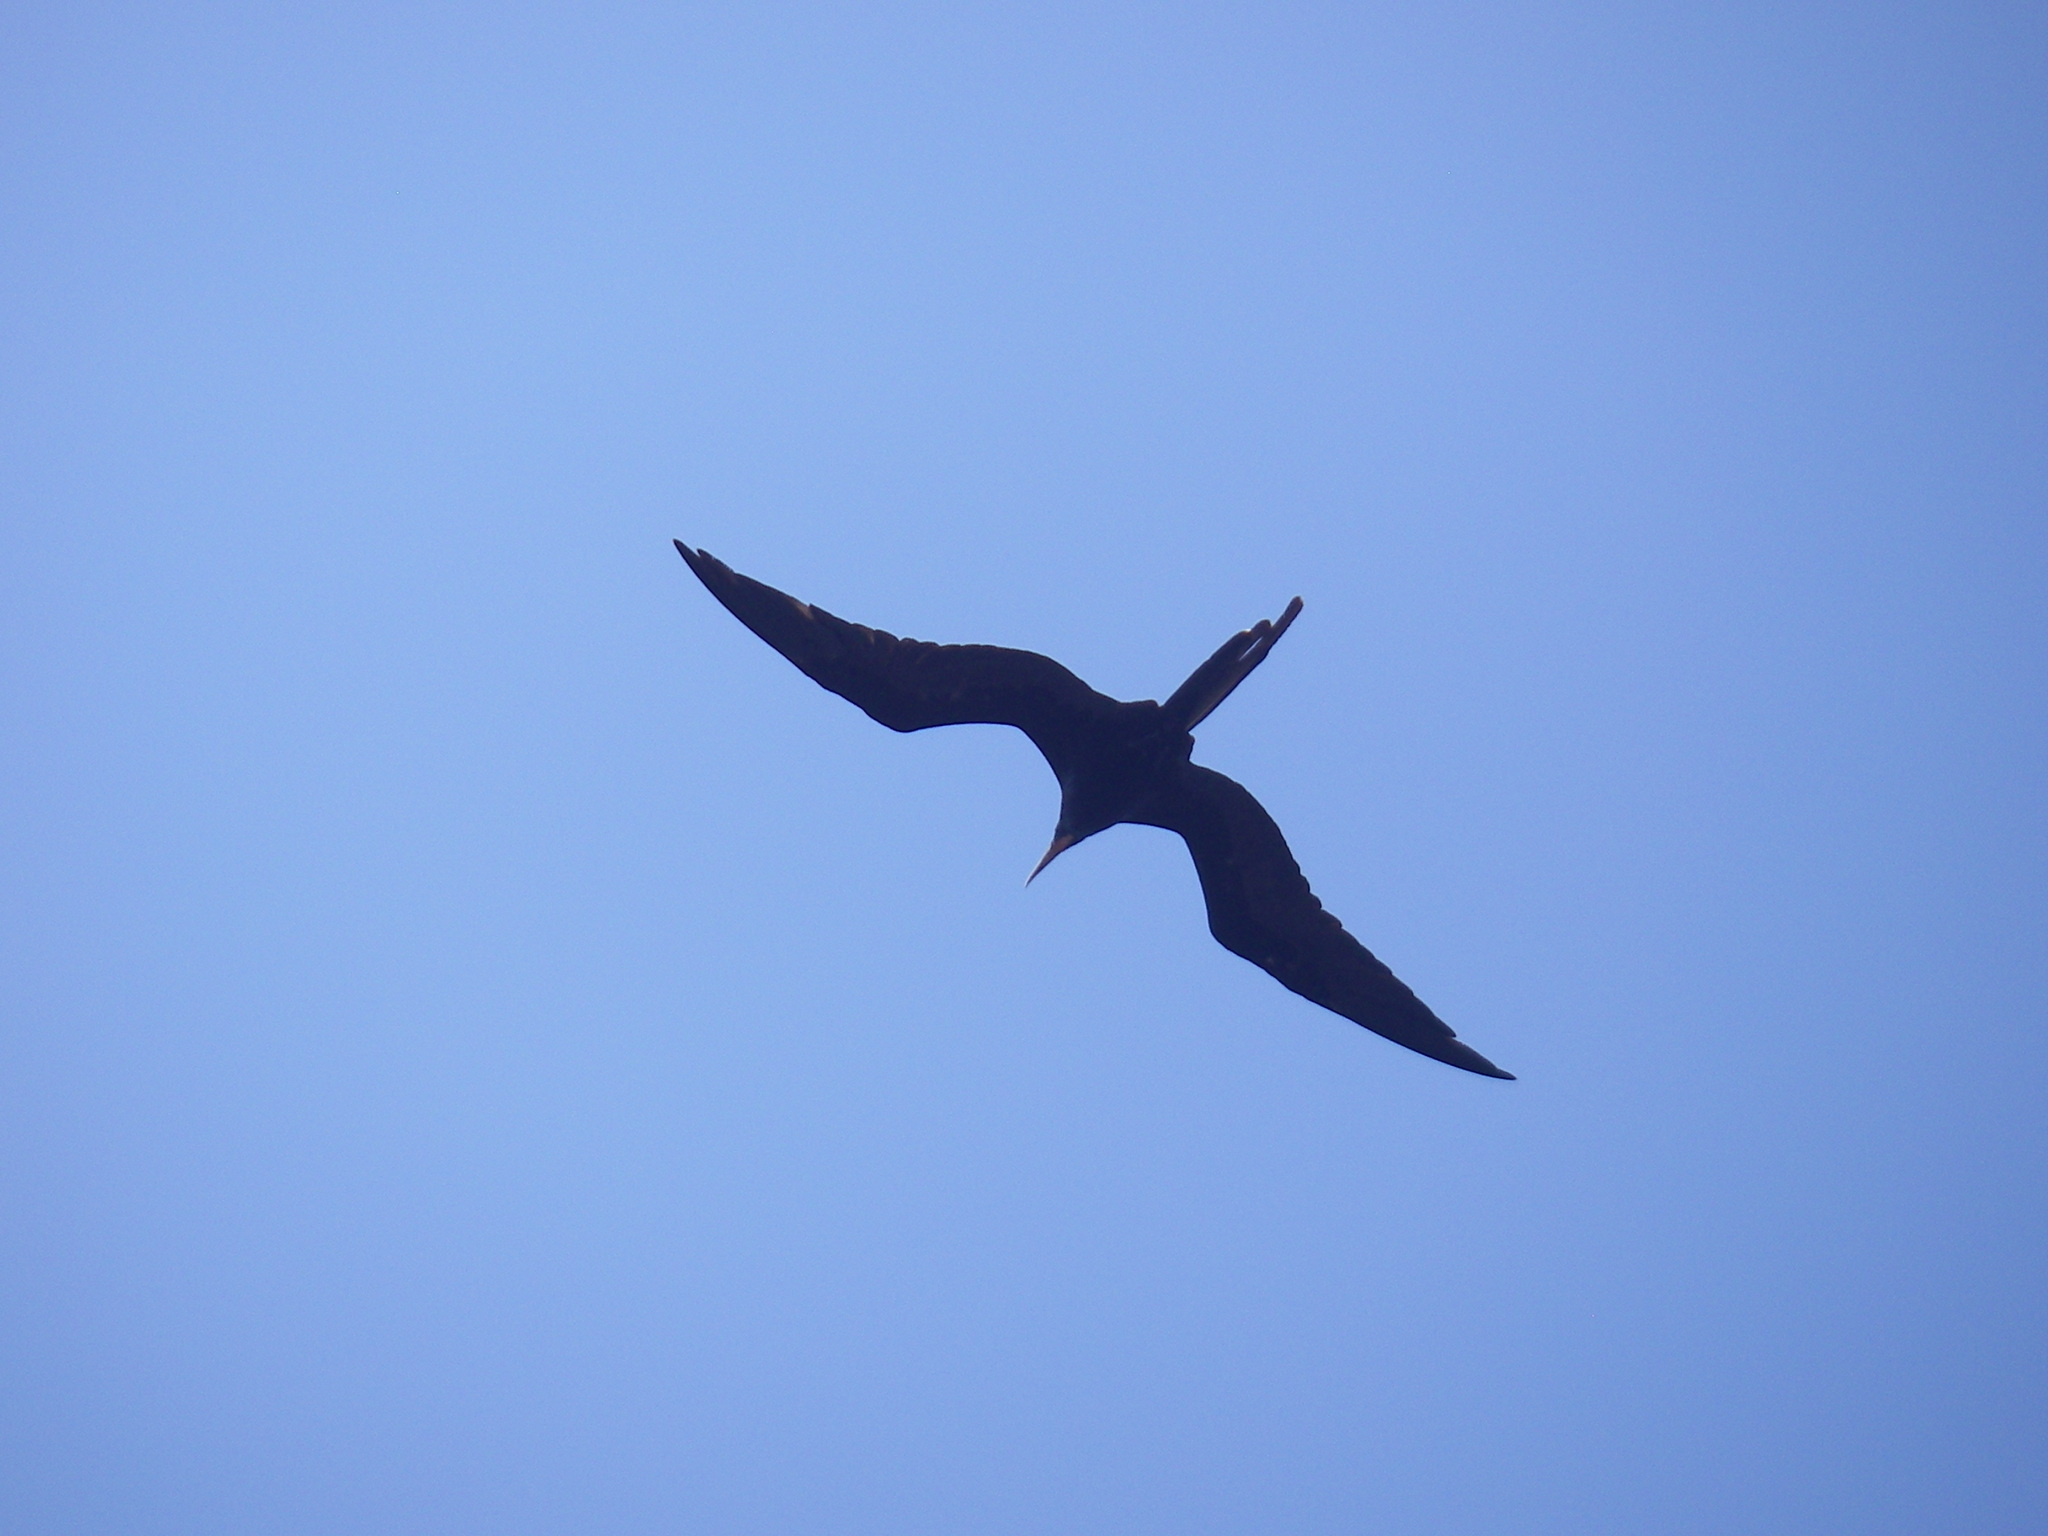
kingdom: Animalia
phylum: Chordata
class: Aves
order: Suliformes
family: Fregatidae
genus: Fregata
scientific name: Fregata magnificens
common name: Magnificent frigatebird
